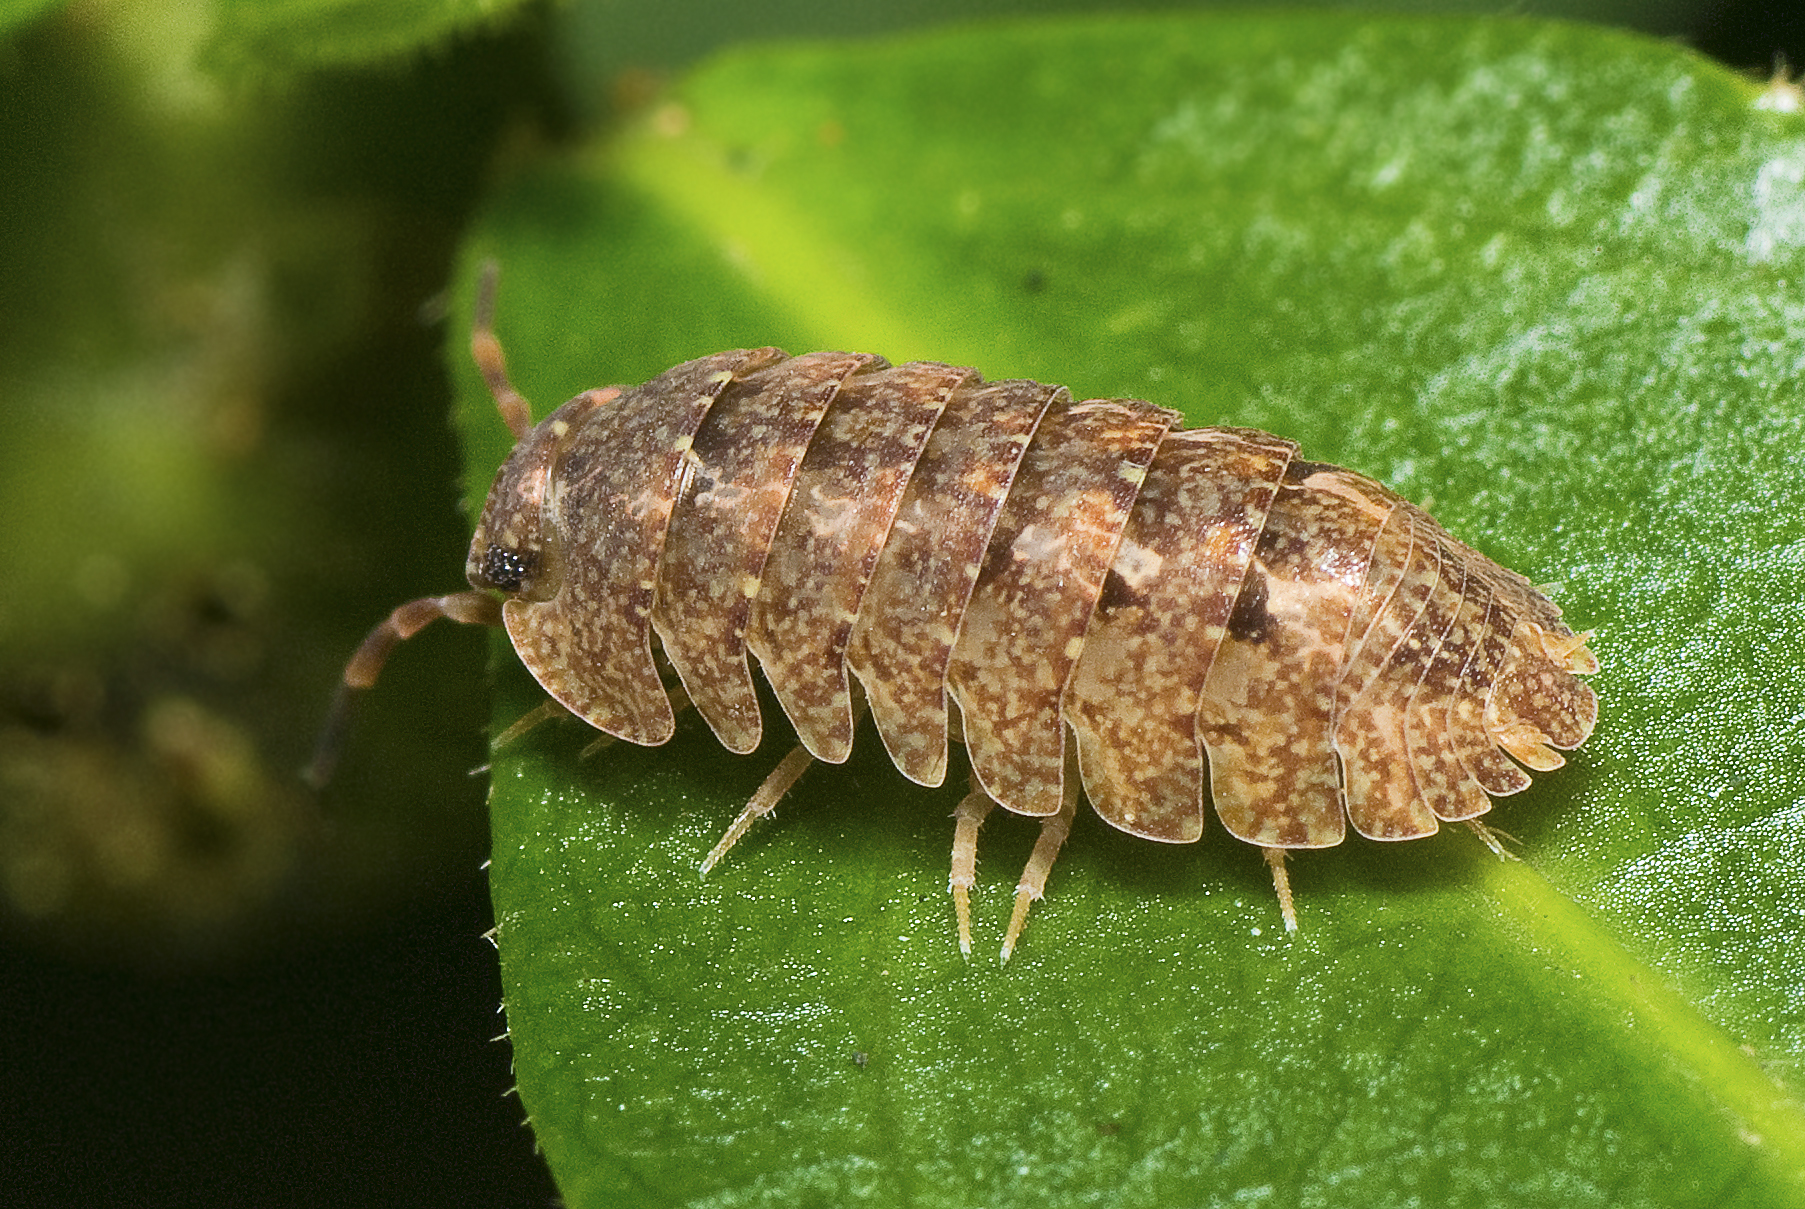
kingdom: Animalia
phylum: Arthropoda
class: Malacostraca
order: Isopoda
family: Armadillidae
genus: Cubaris
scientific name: Cubaris marmorata
